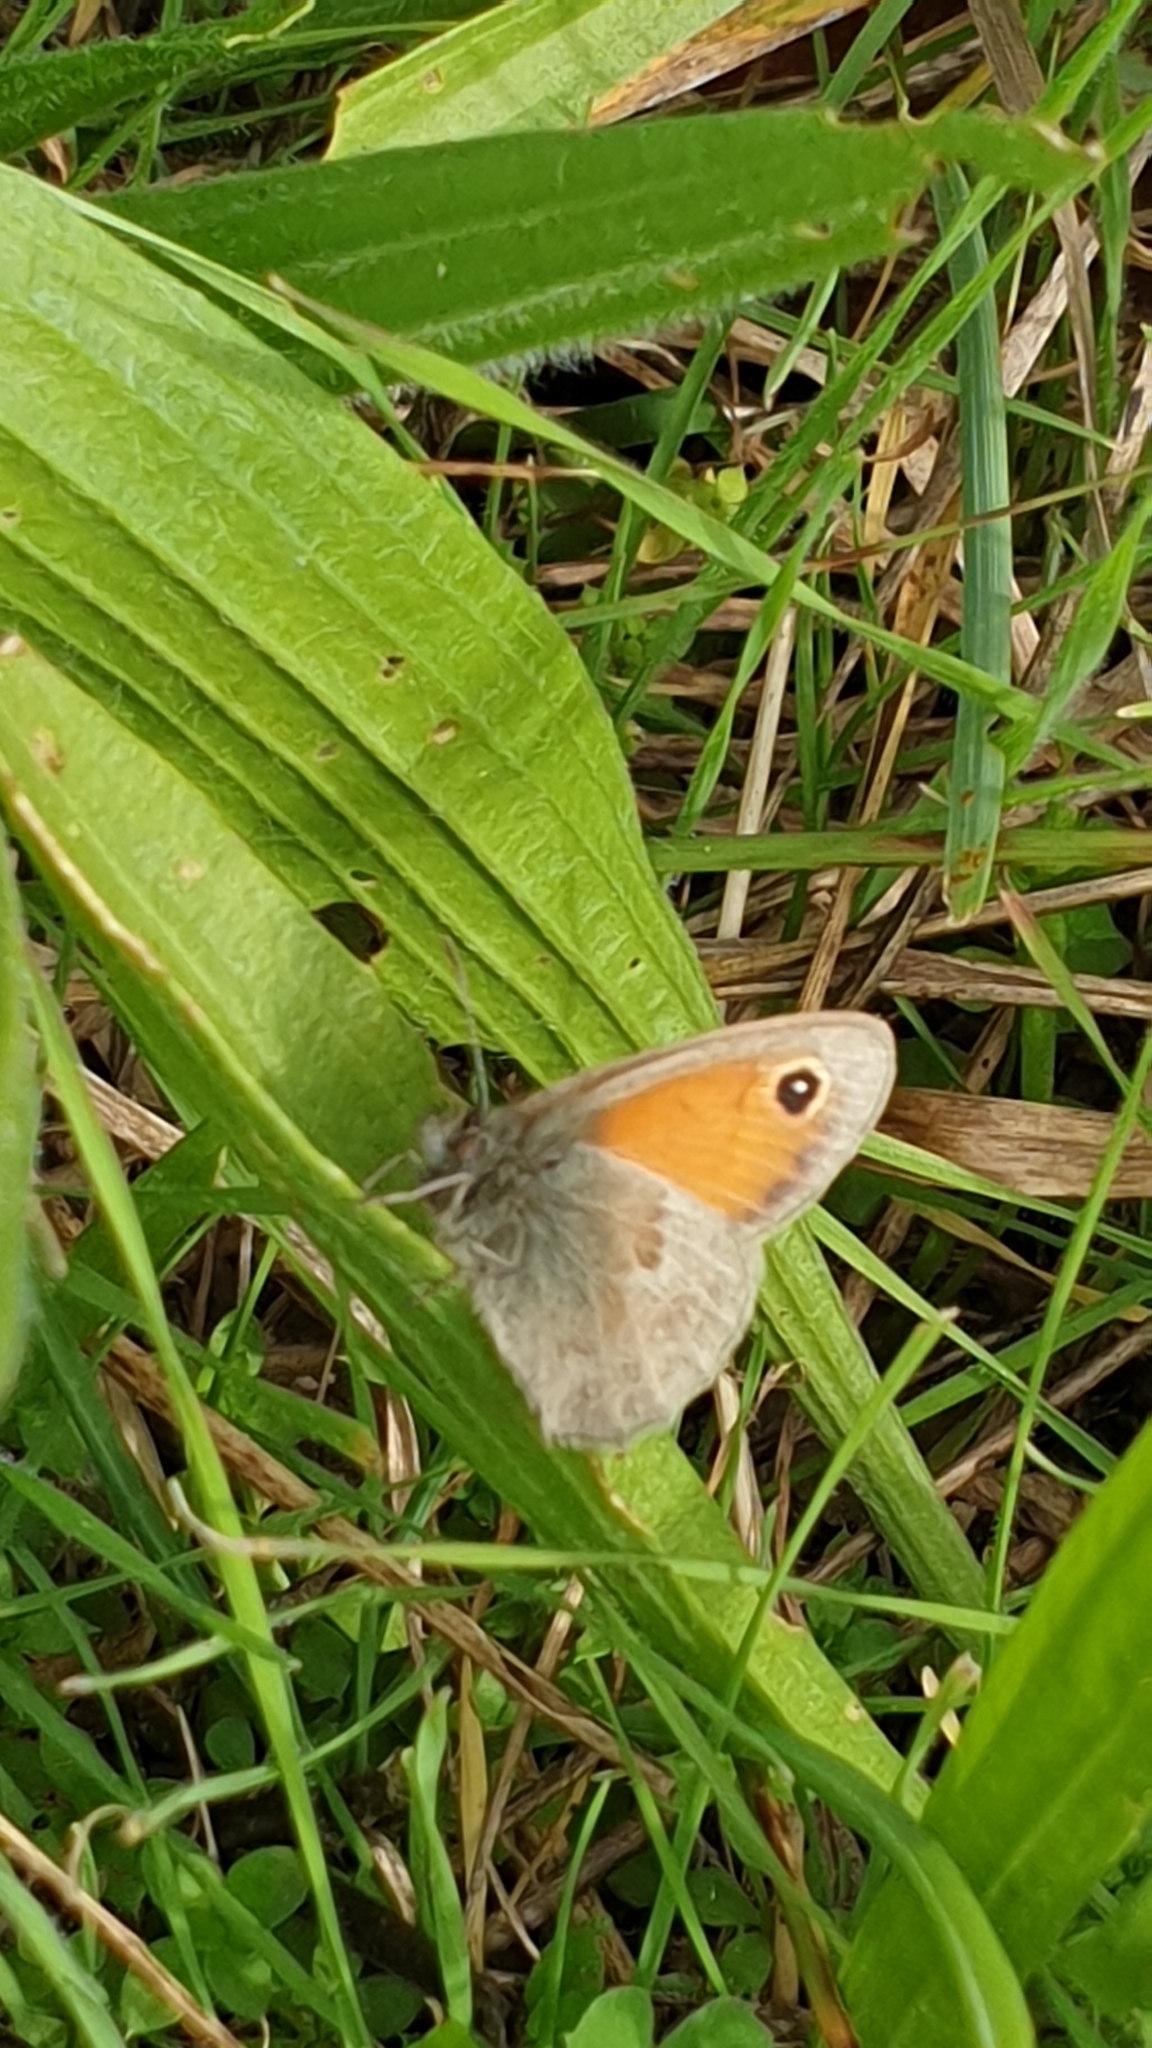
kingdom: Animalia
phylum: Arthropoda
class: Insecta
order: Lepidoptera
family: Nymphalidae
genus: Coenonympha
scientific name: Coenonympha pamphilus
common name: Small heath
